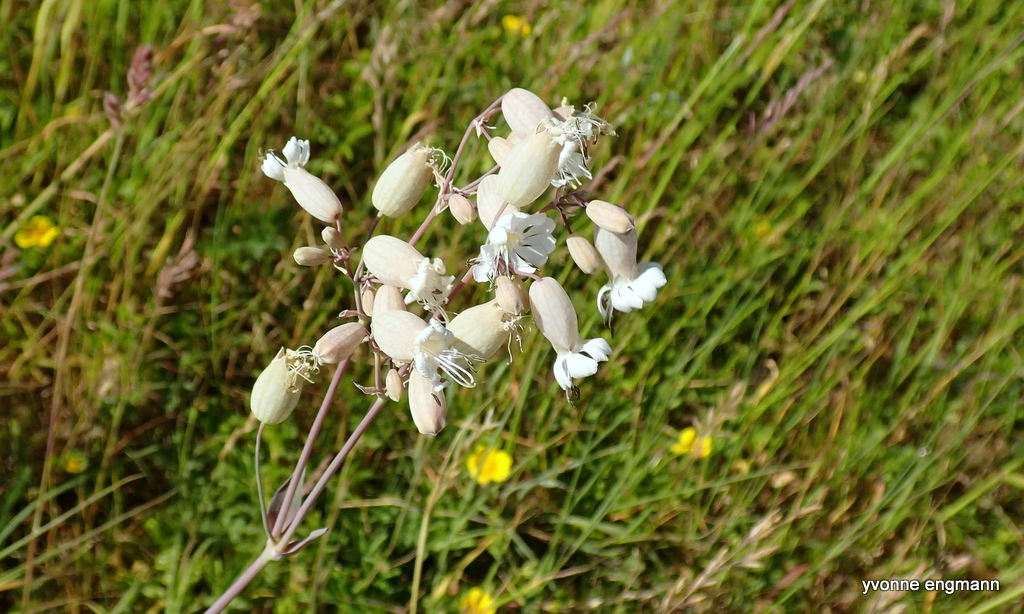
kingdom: Plantae
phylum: Tracheophyta
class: Magnoliopsida
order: Caryophyllales
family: Caryophyllaceae
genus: Silene
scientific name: Silene vulgaris
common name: Bladder campion
